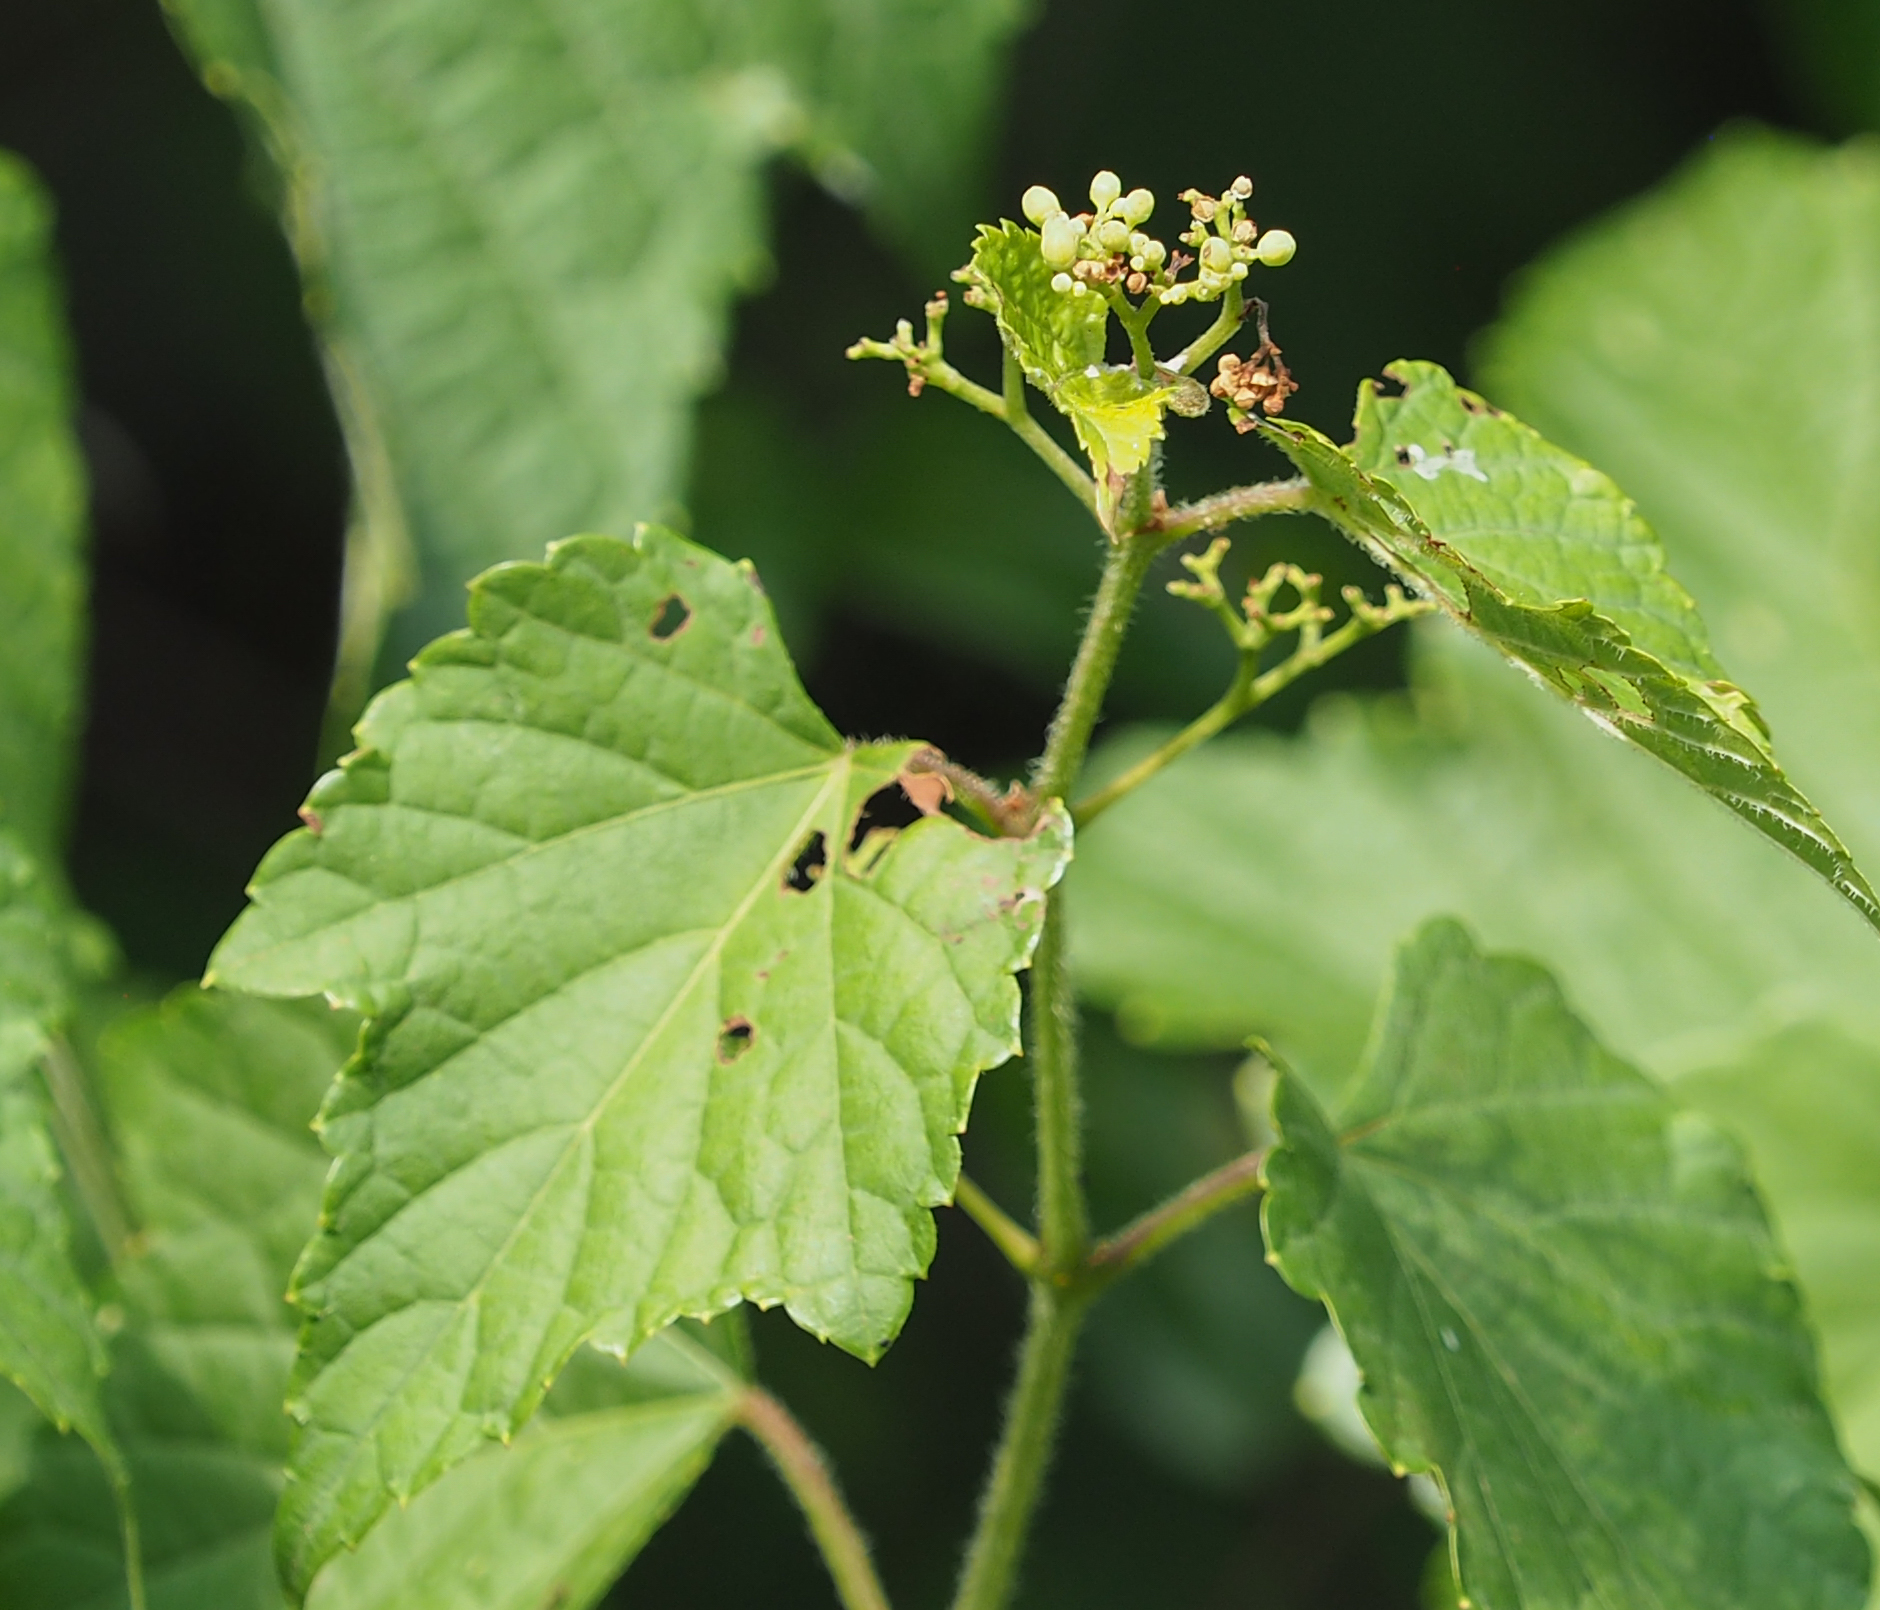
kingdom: Plantae
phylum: Tracheophyta
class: Magnoliopsida
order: Vitales
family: Vitaceae
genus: Ampelopsis
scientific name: Ampelopsis glandulosa
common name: Amur peppervine
